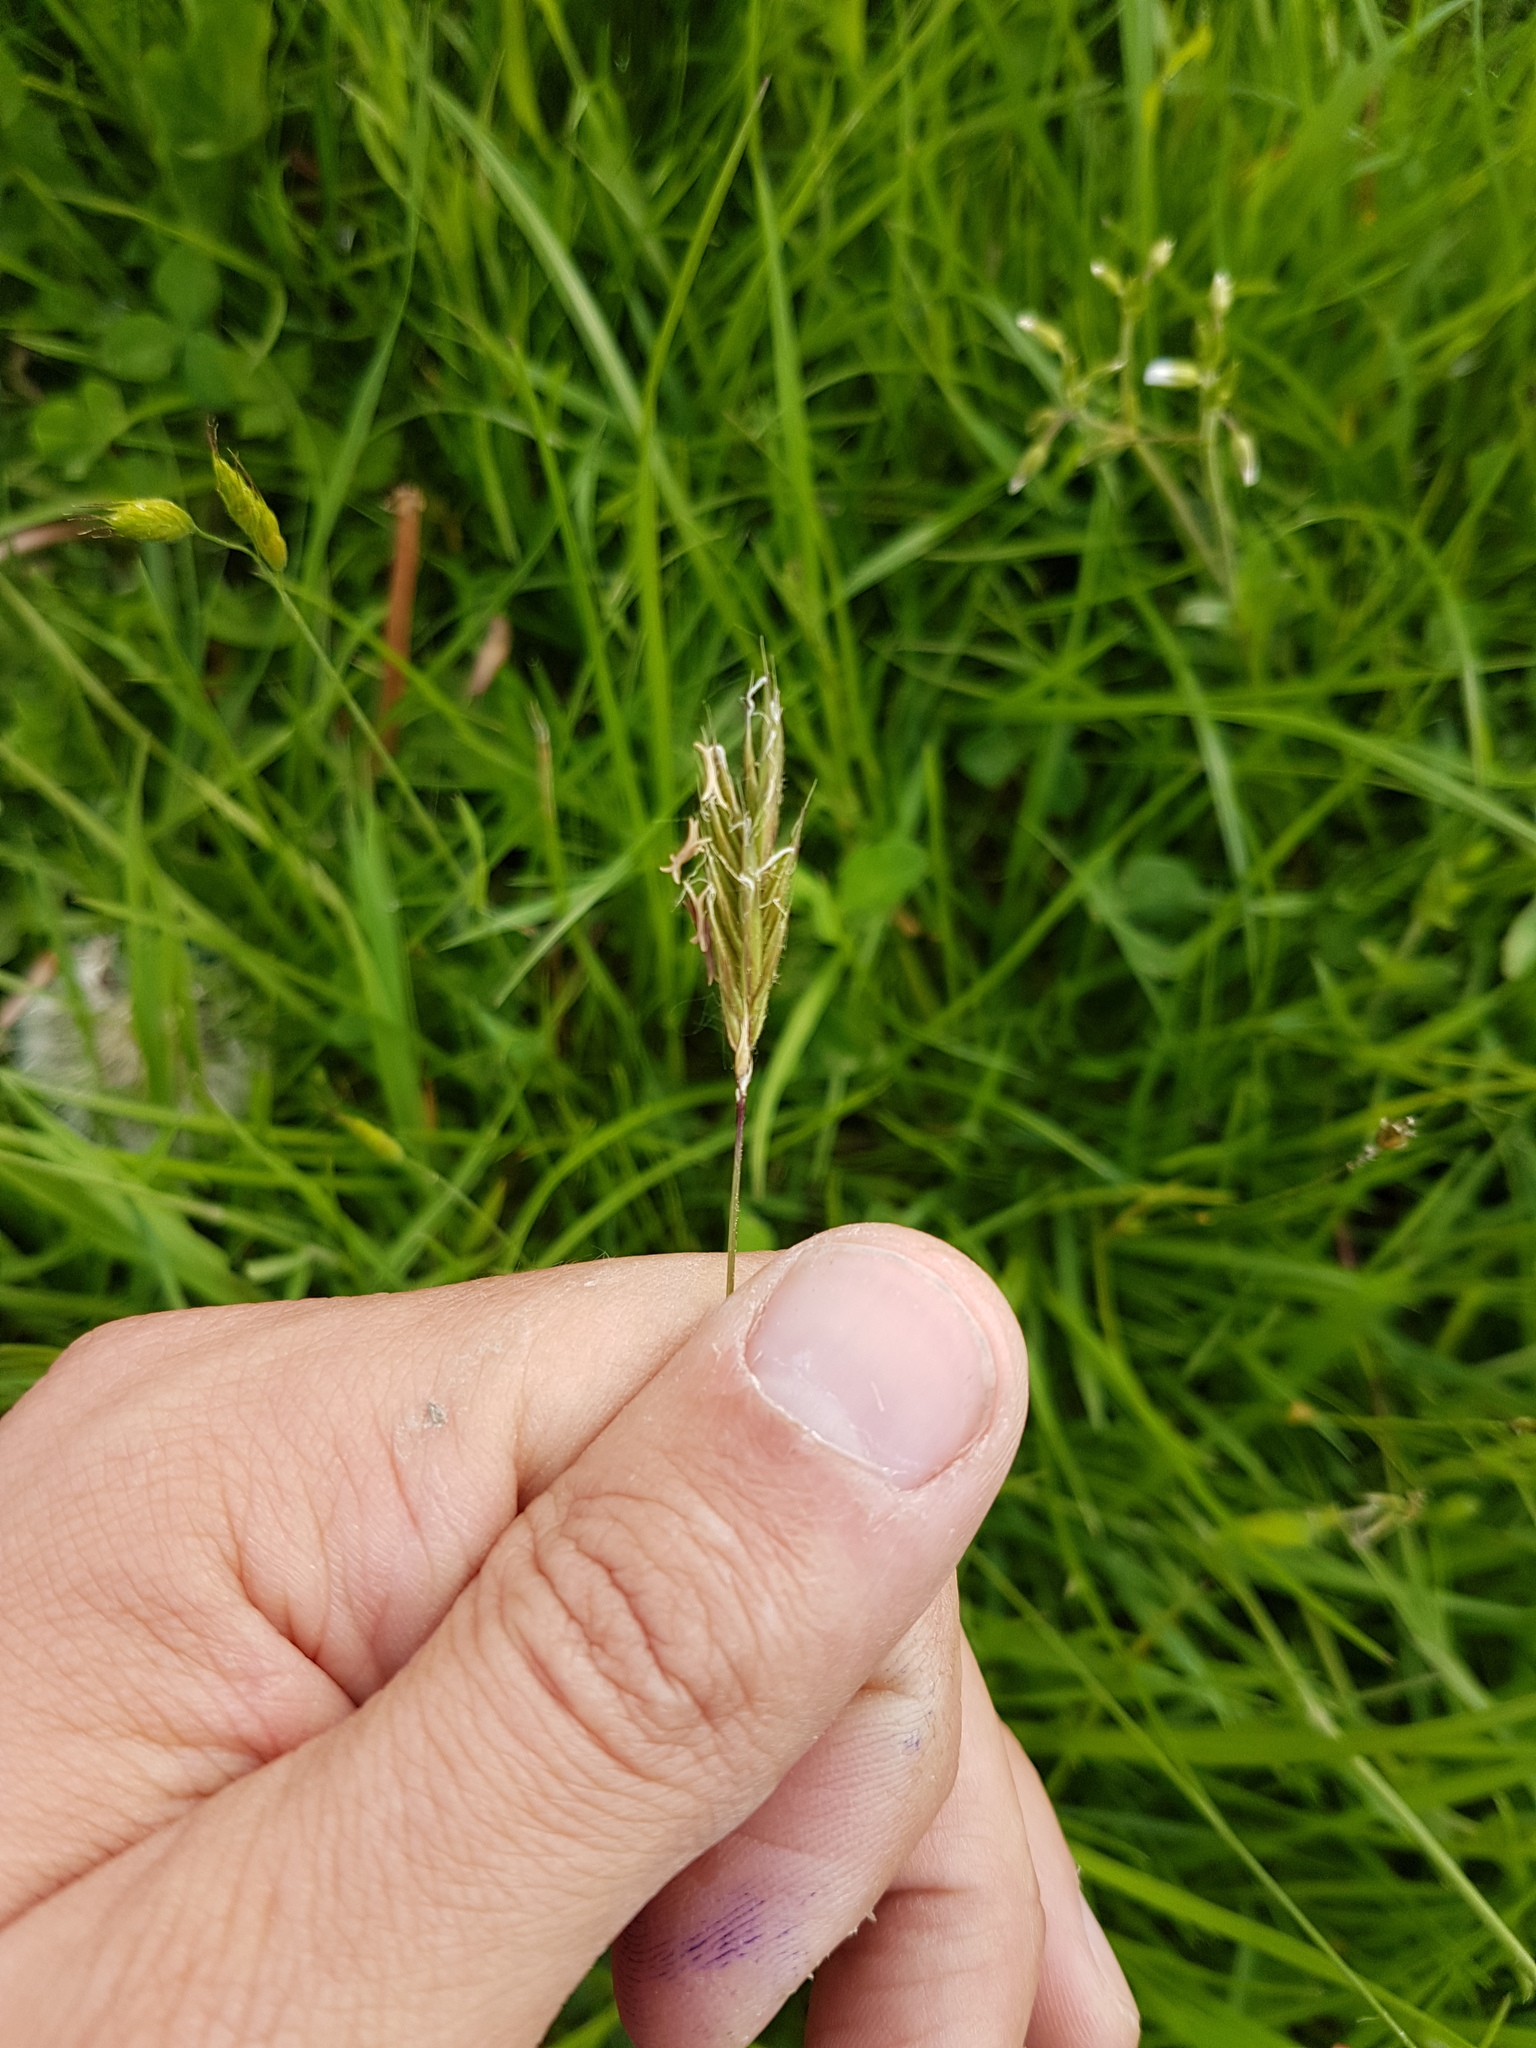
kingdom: Plantae
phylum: Tracheophyta
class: Liliopsida
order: Poales
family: Poaceae
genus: Anthoxanthum
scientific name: Anthoxanthum odoratum
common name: Sweet vernalgrass
